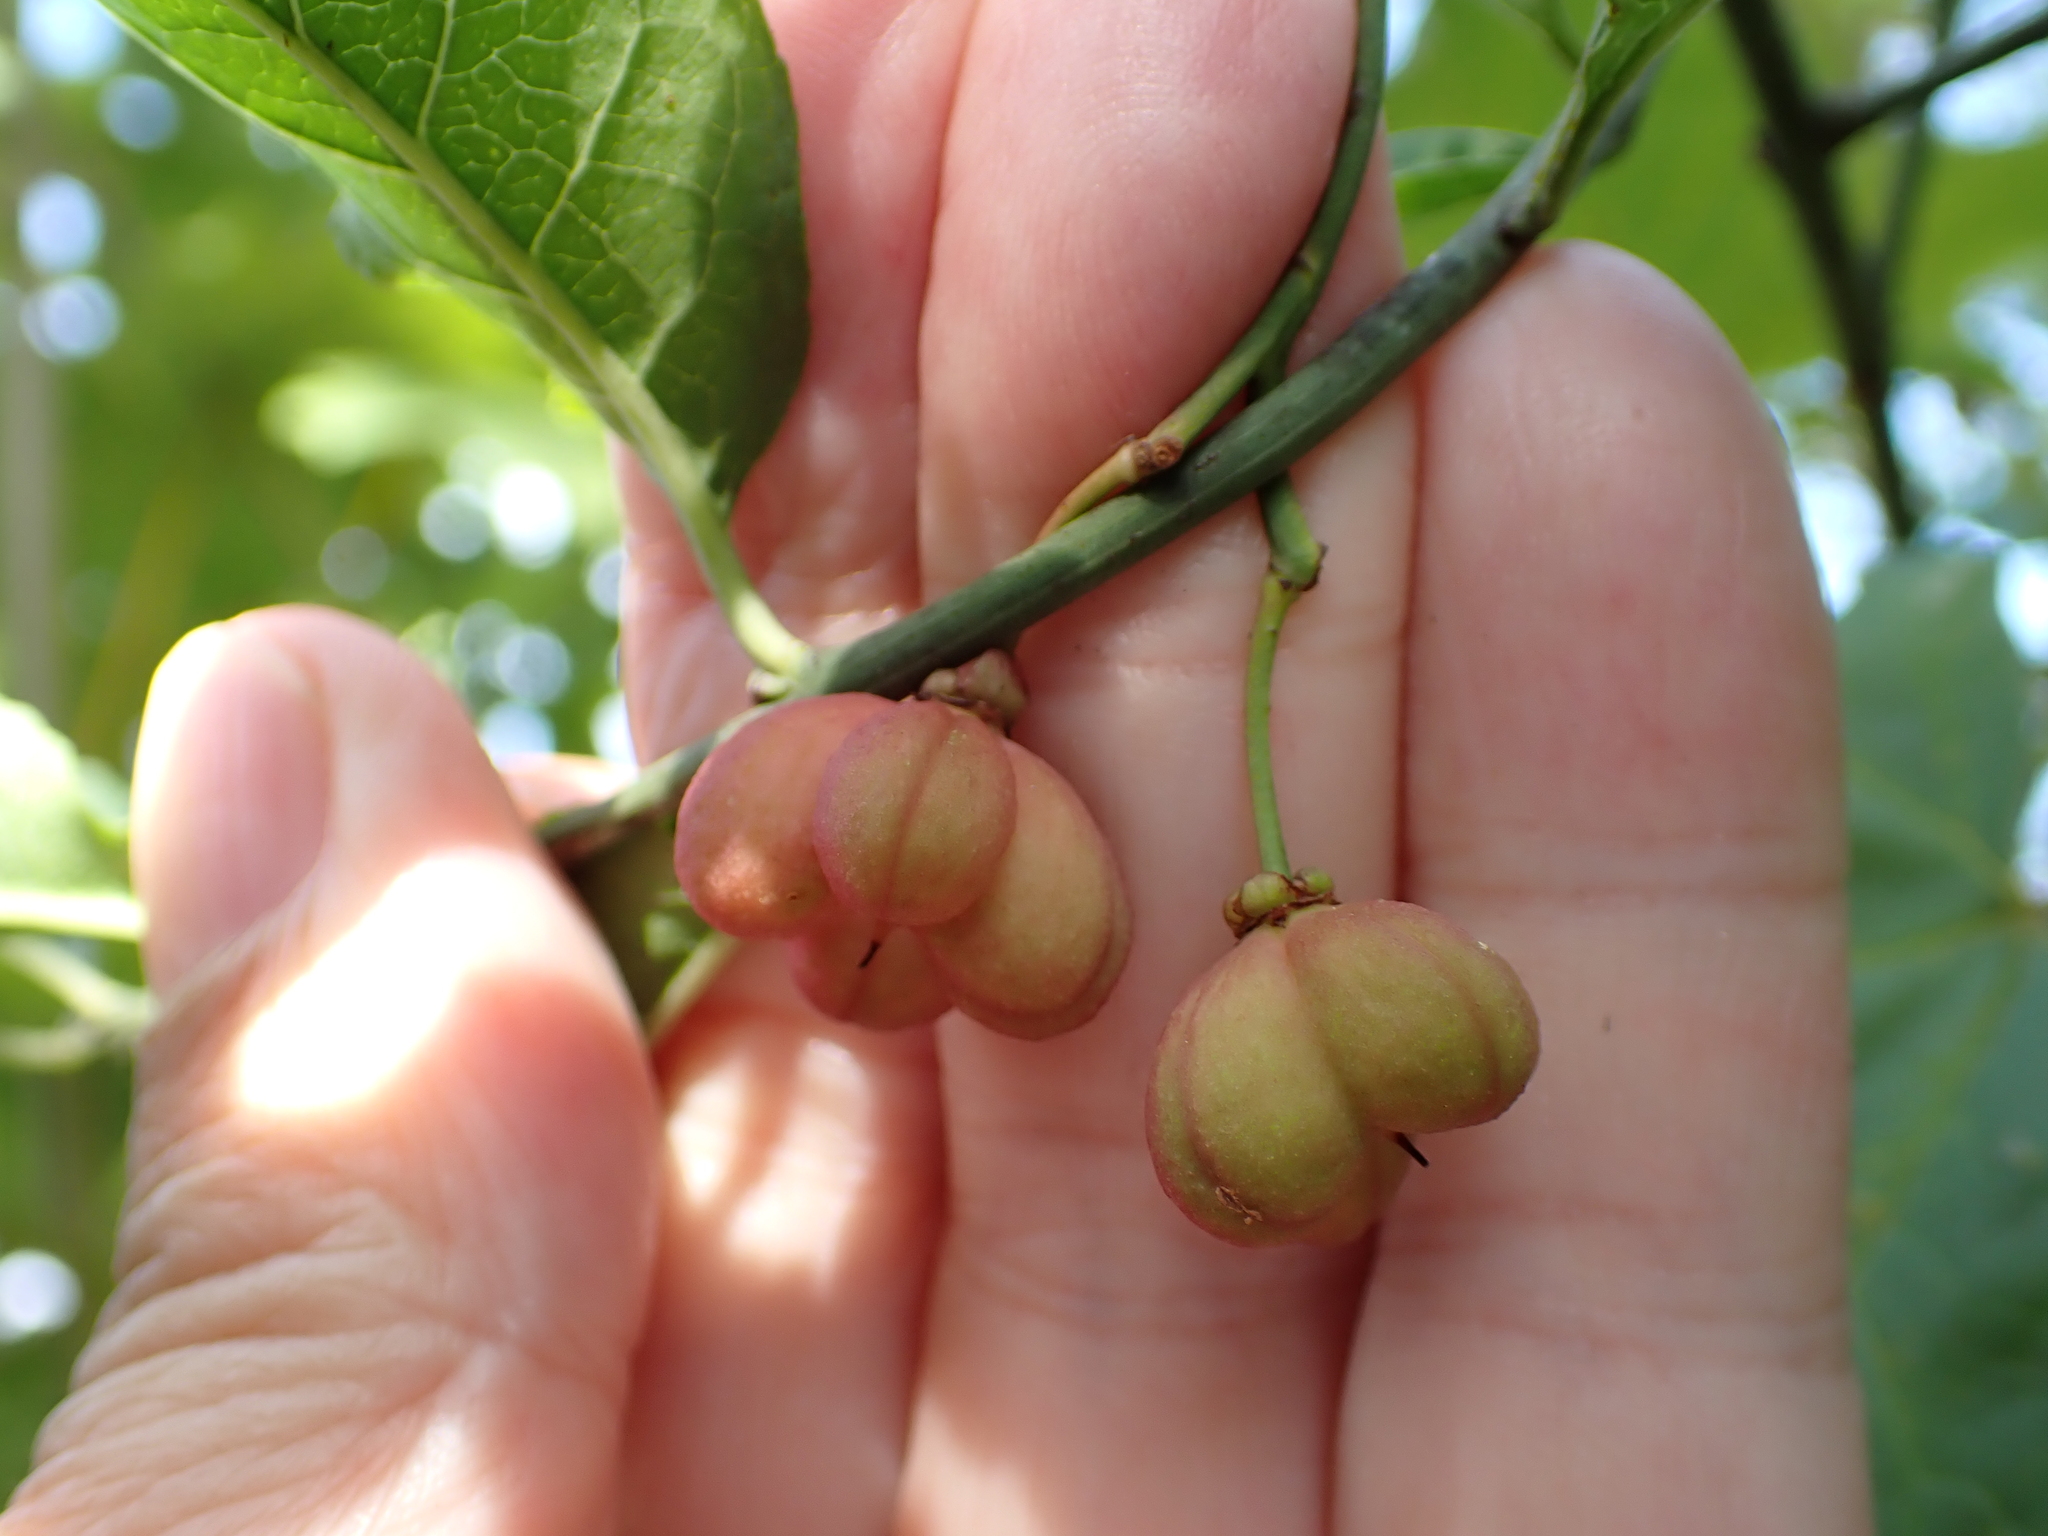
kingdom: Plantae
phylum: Tracheophyta
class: Magnoliopsida
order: Celastrales
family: Celastraceae
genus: Euonymus
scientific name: Euonymus europaeus
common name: Spindle
